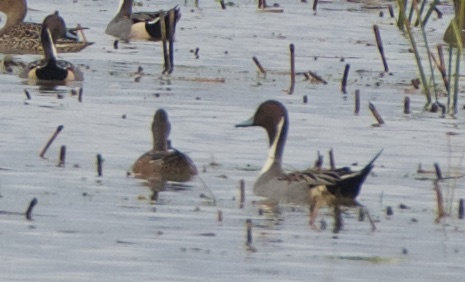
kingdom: Animalia
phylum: Chordata
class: Aves
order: Anseriformes
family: Anatidae
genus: Anas
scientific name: Anas acuta
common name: Northern pintail
